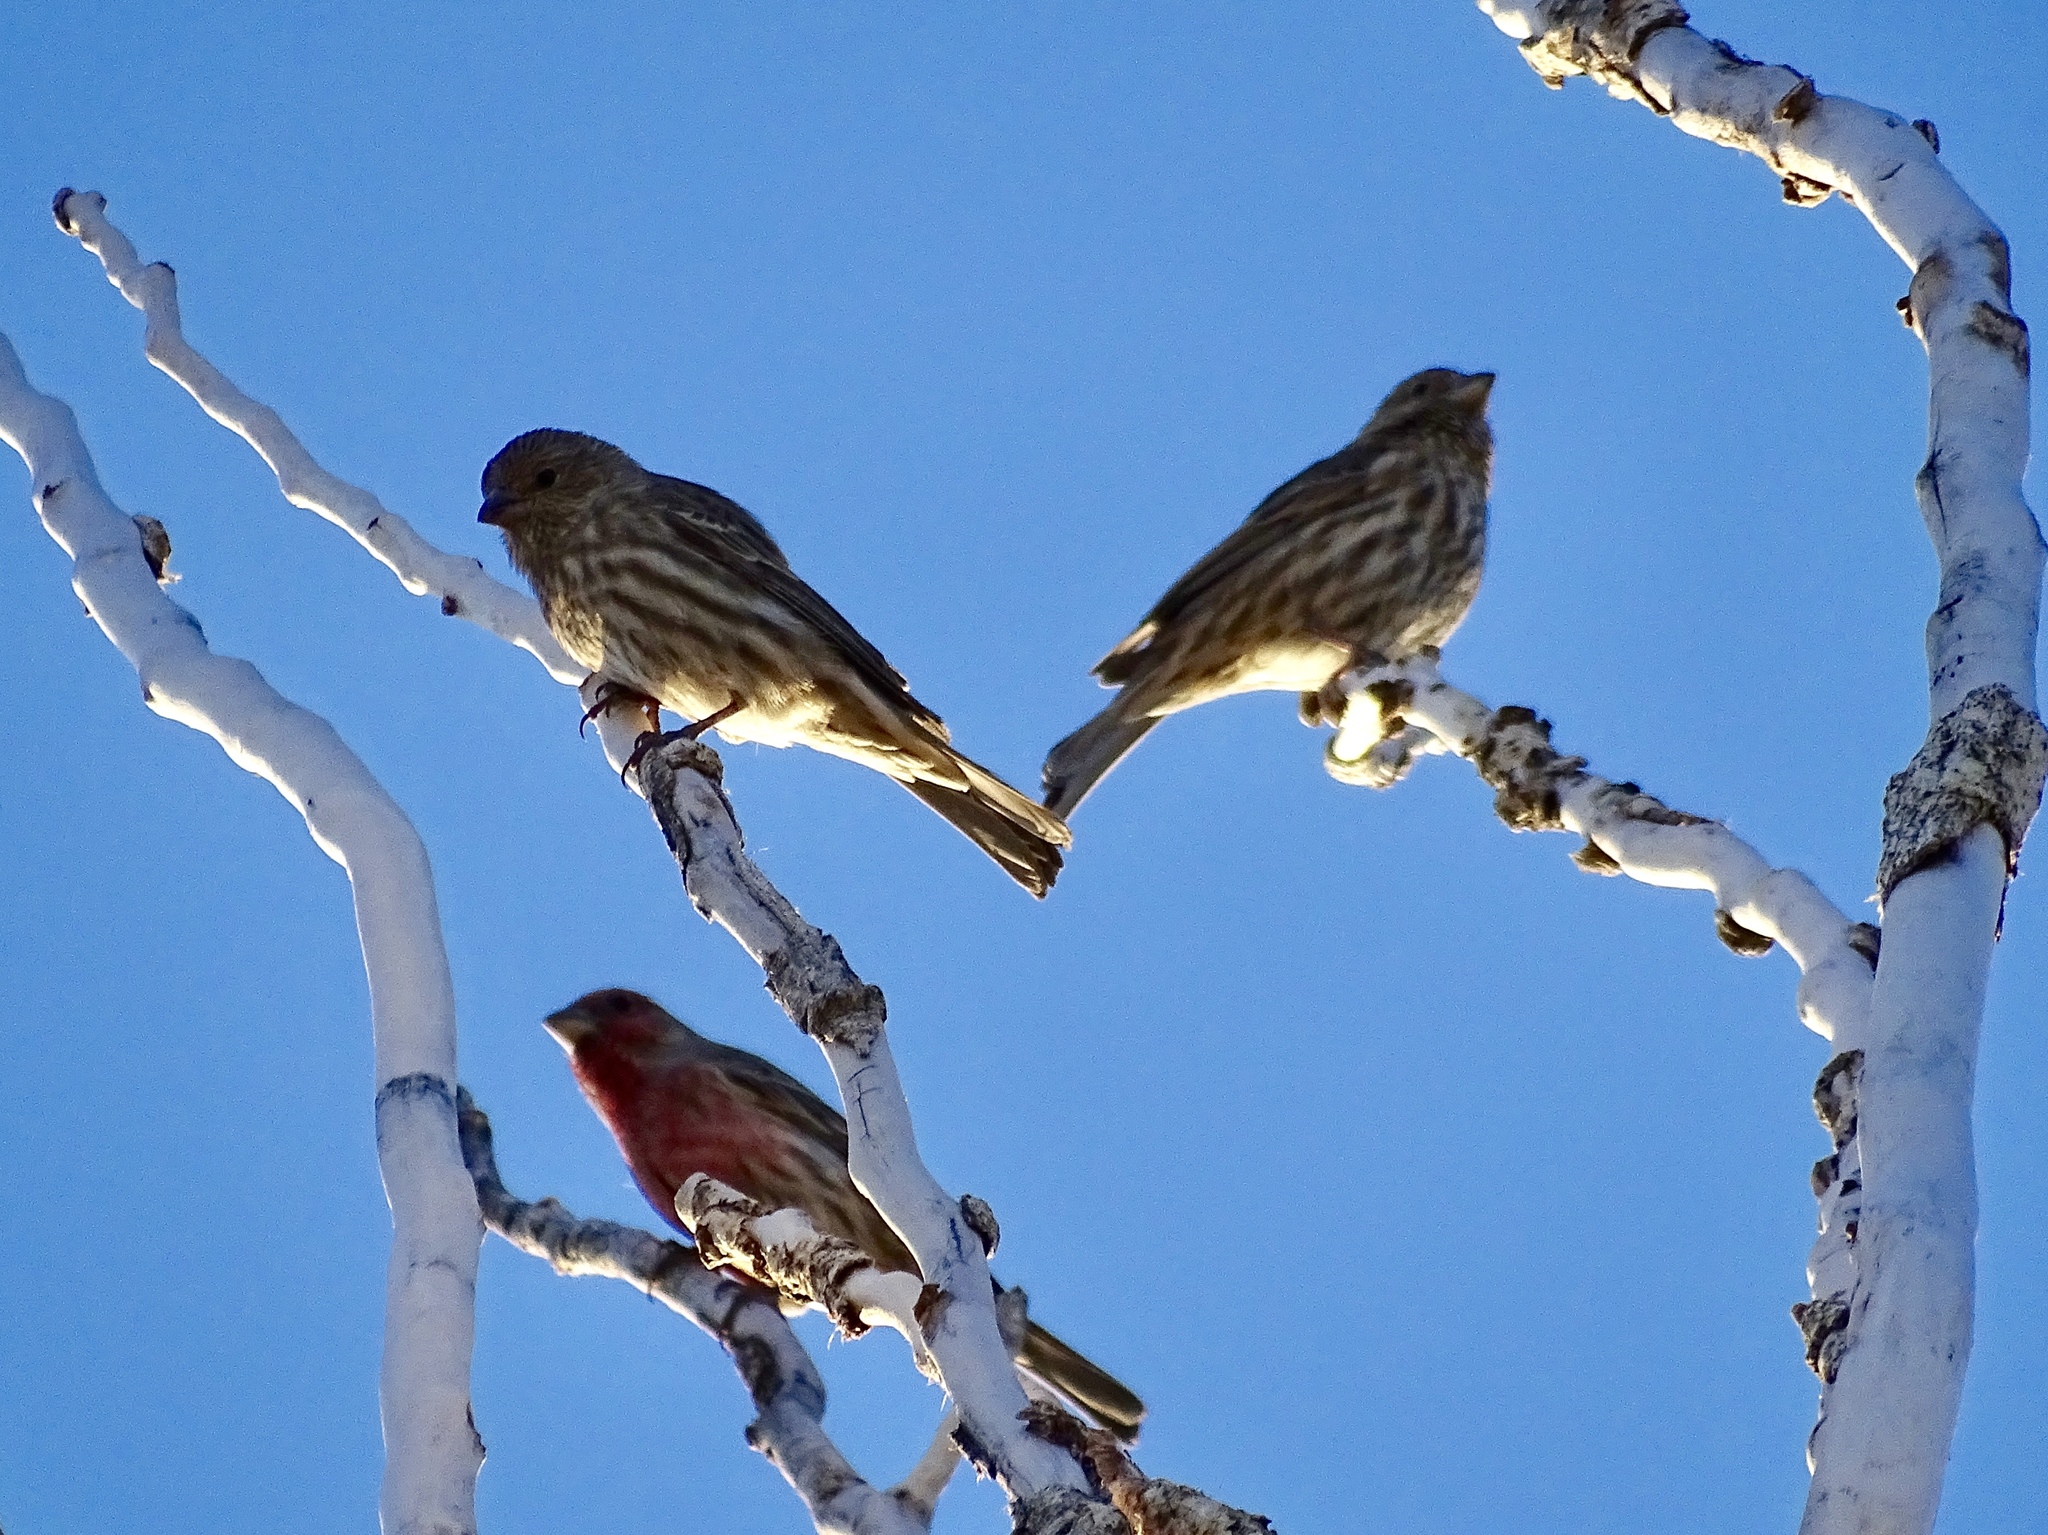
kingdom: Animalia
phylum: Chordata
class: Aves
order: Passeriformes
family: Fringillidae
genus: Haemorhous
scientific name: Haemorhous mexicanus
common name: House finch
